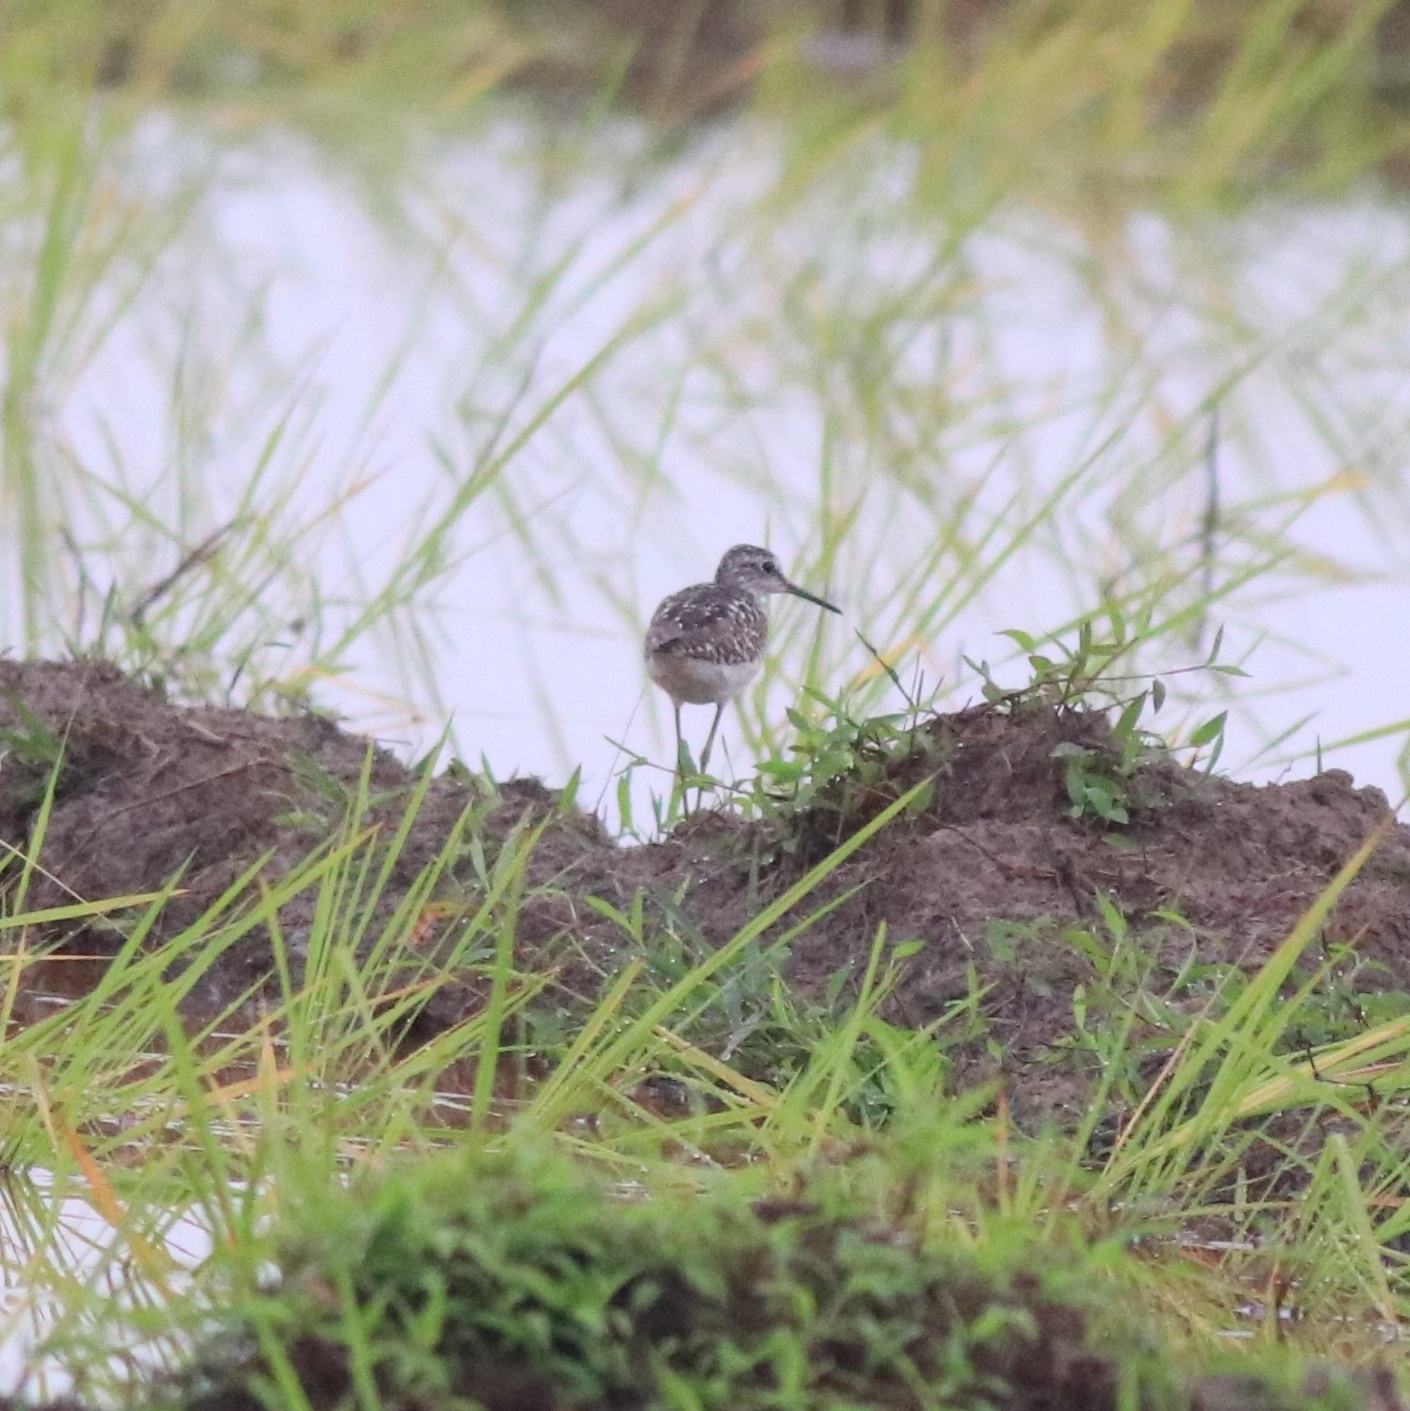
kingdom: Animalia
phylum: Chordata
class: Aves
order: Charadriiformes
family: Scolopacidae
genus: Tringa
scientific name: Tringa glareola
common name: Wood sandpiper
